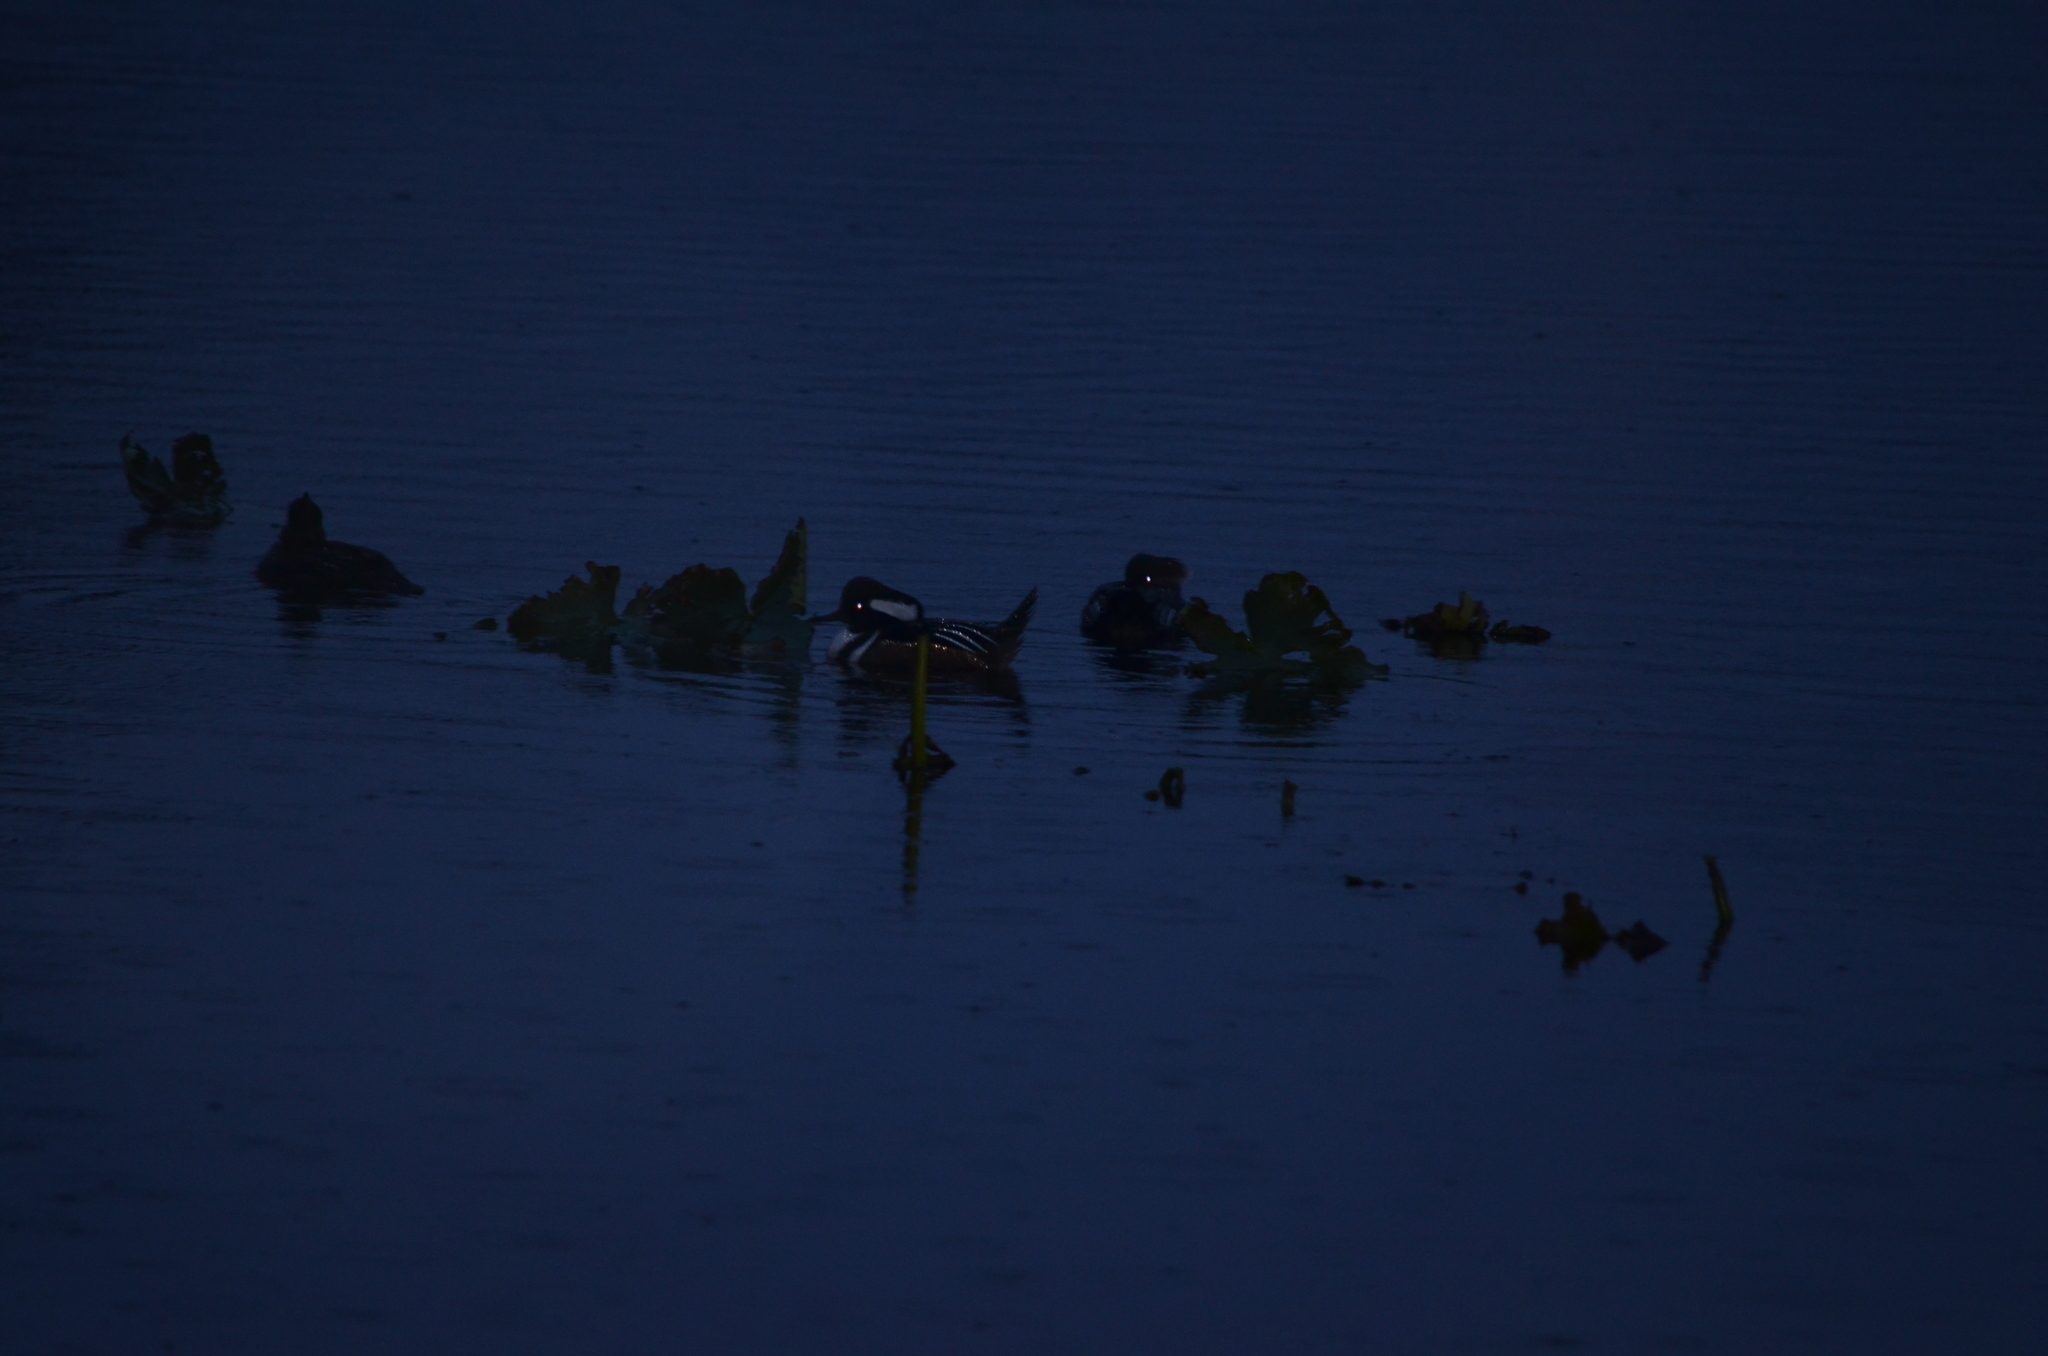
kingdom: Animalia
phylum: Chordata
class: Aves
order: Anseriformes
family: Anatidae
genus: Lophodytes
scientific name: Lophodytes cucullatus
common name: Hooded merganser
